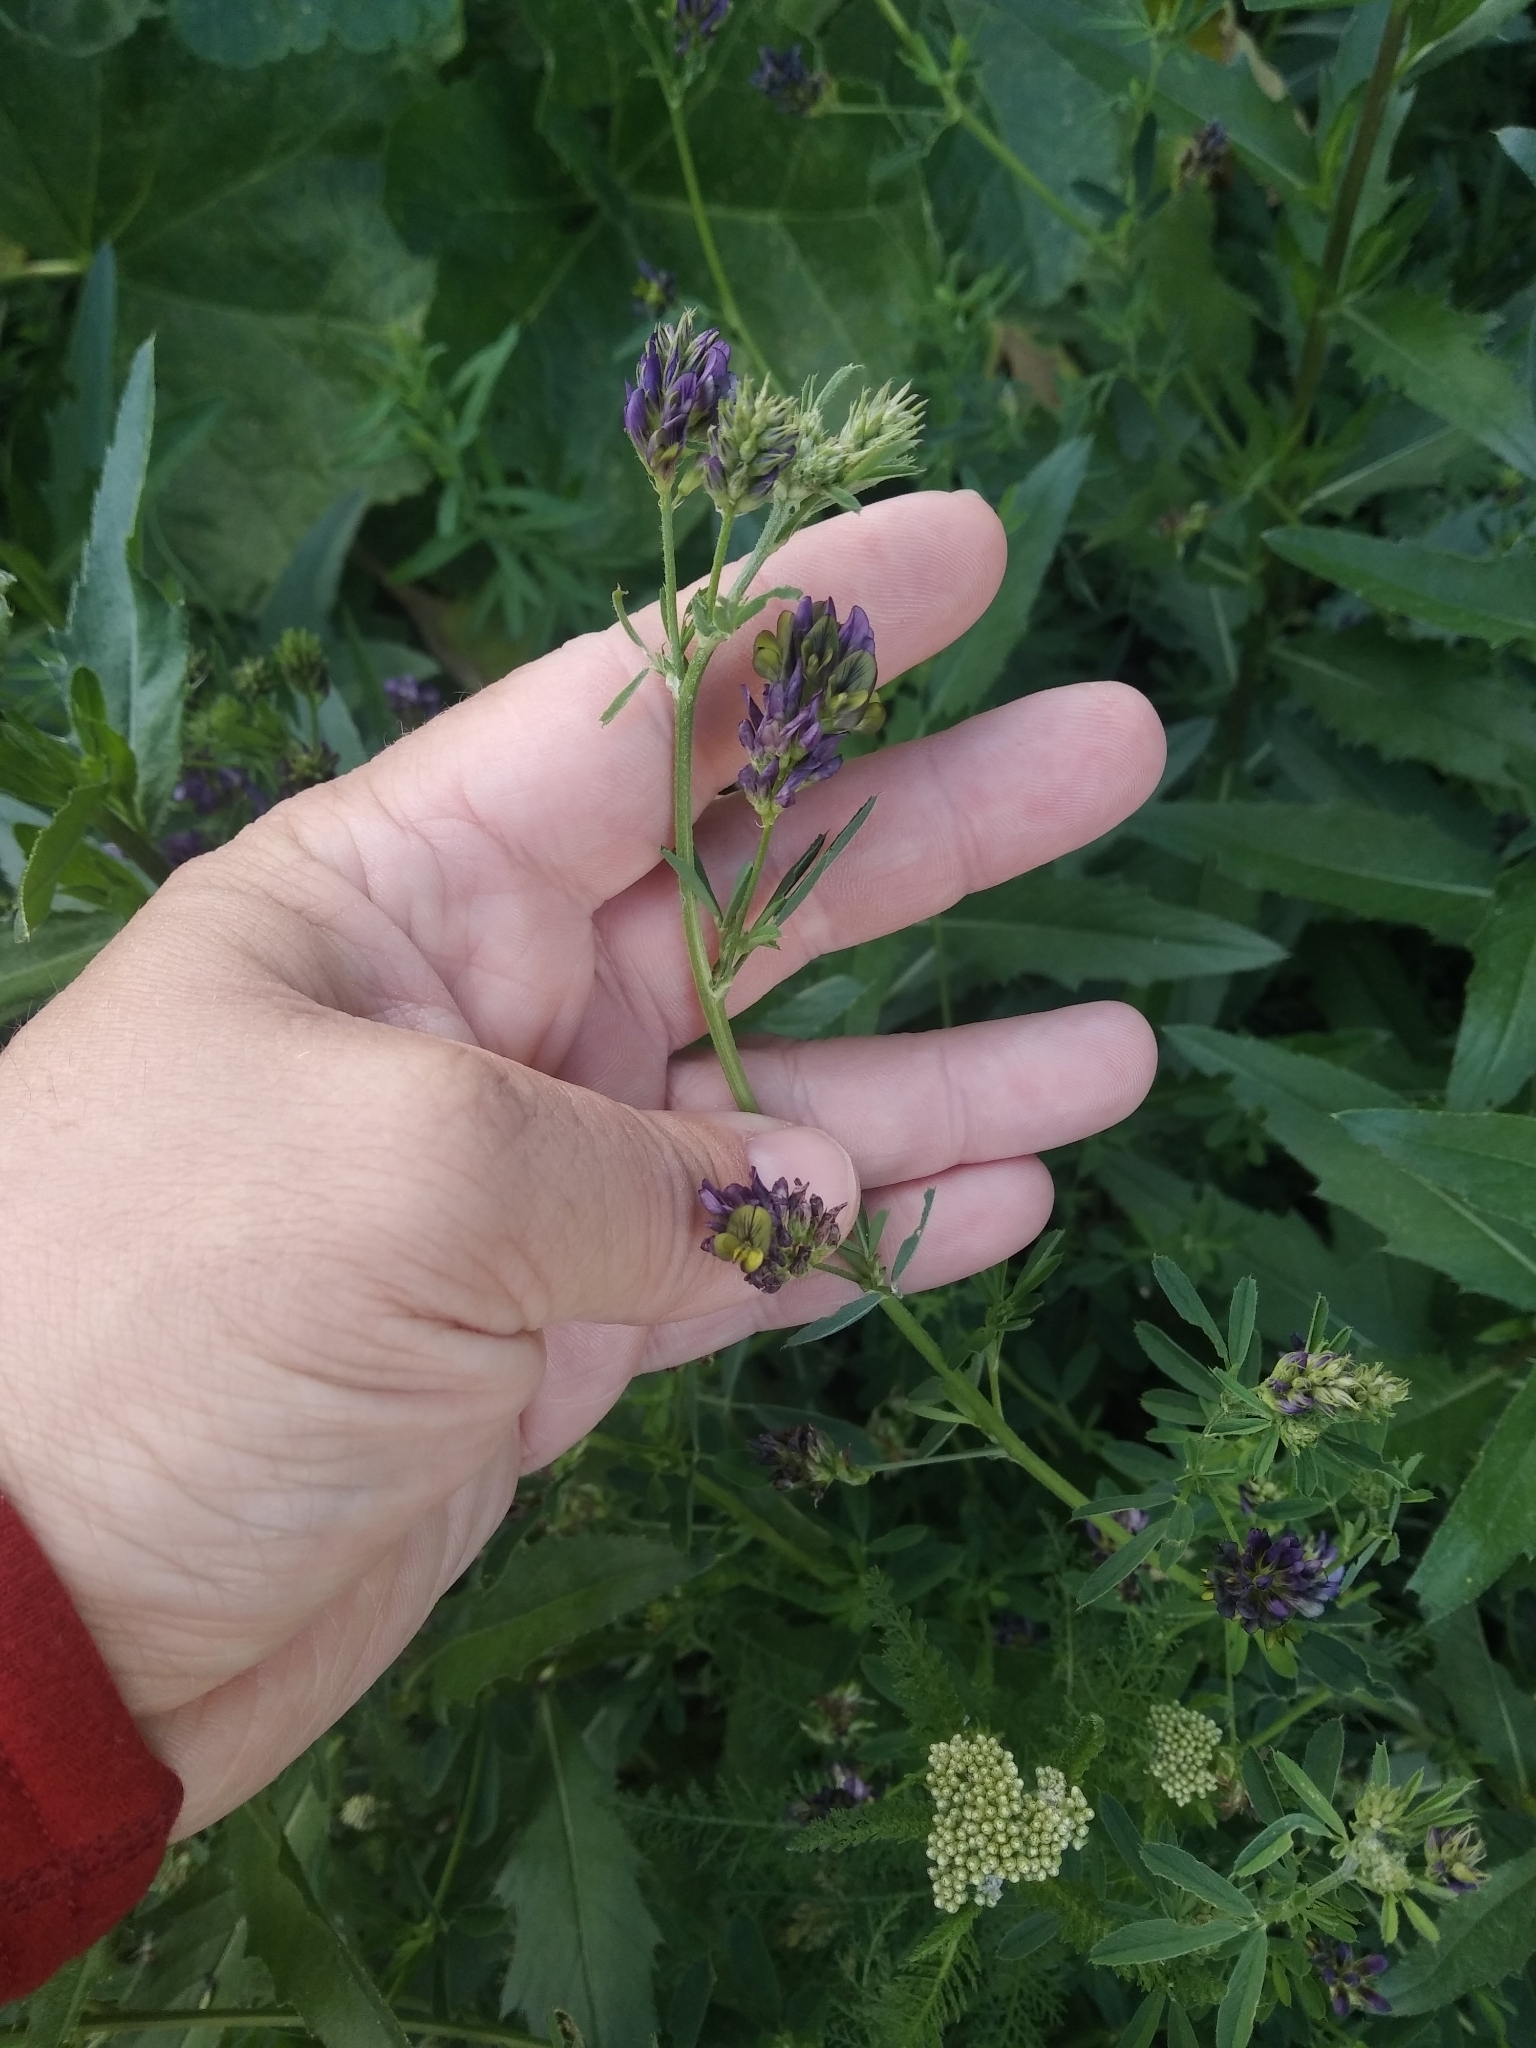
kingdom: Plantae
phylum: Tracheophyta
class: Magnoliopsida
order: Fabales
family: Fabaceae
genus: Medicago
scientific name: Medicago varia
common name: Sand lucerne
